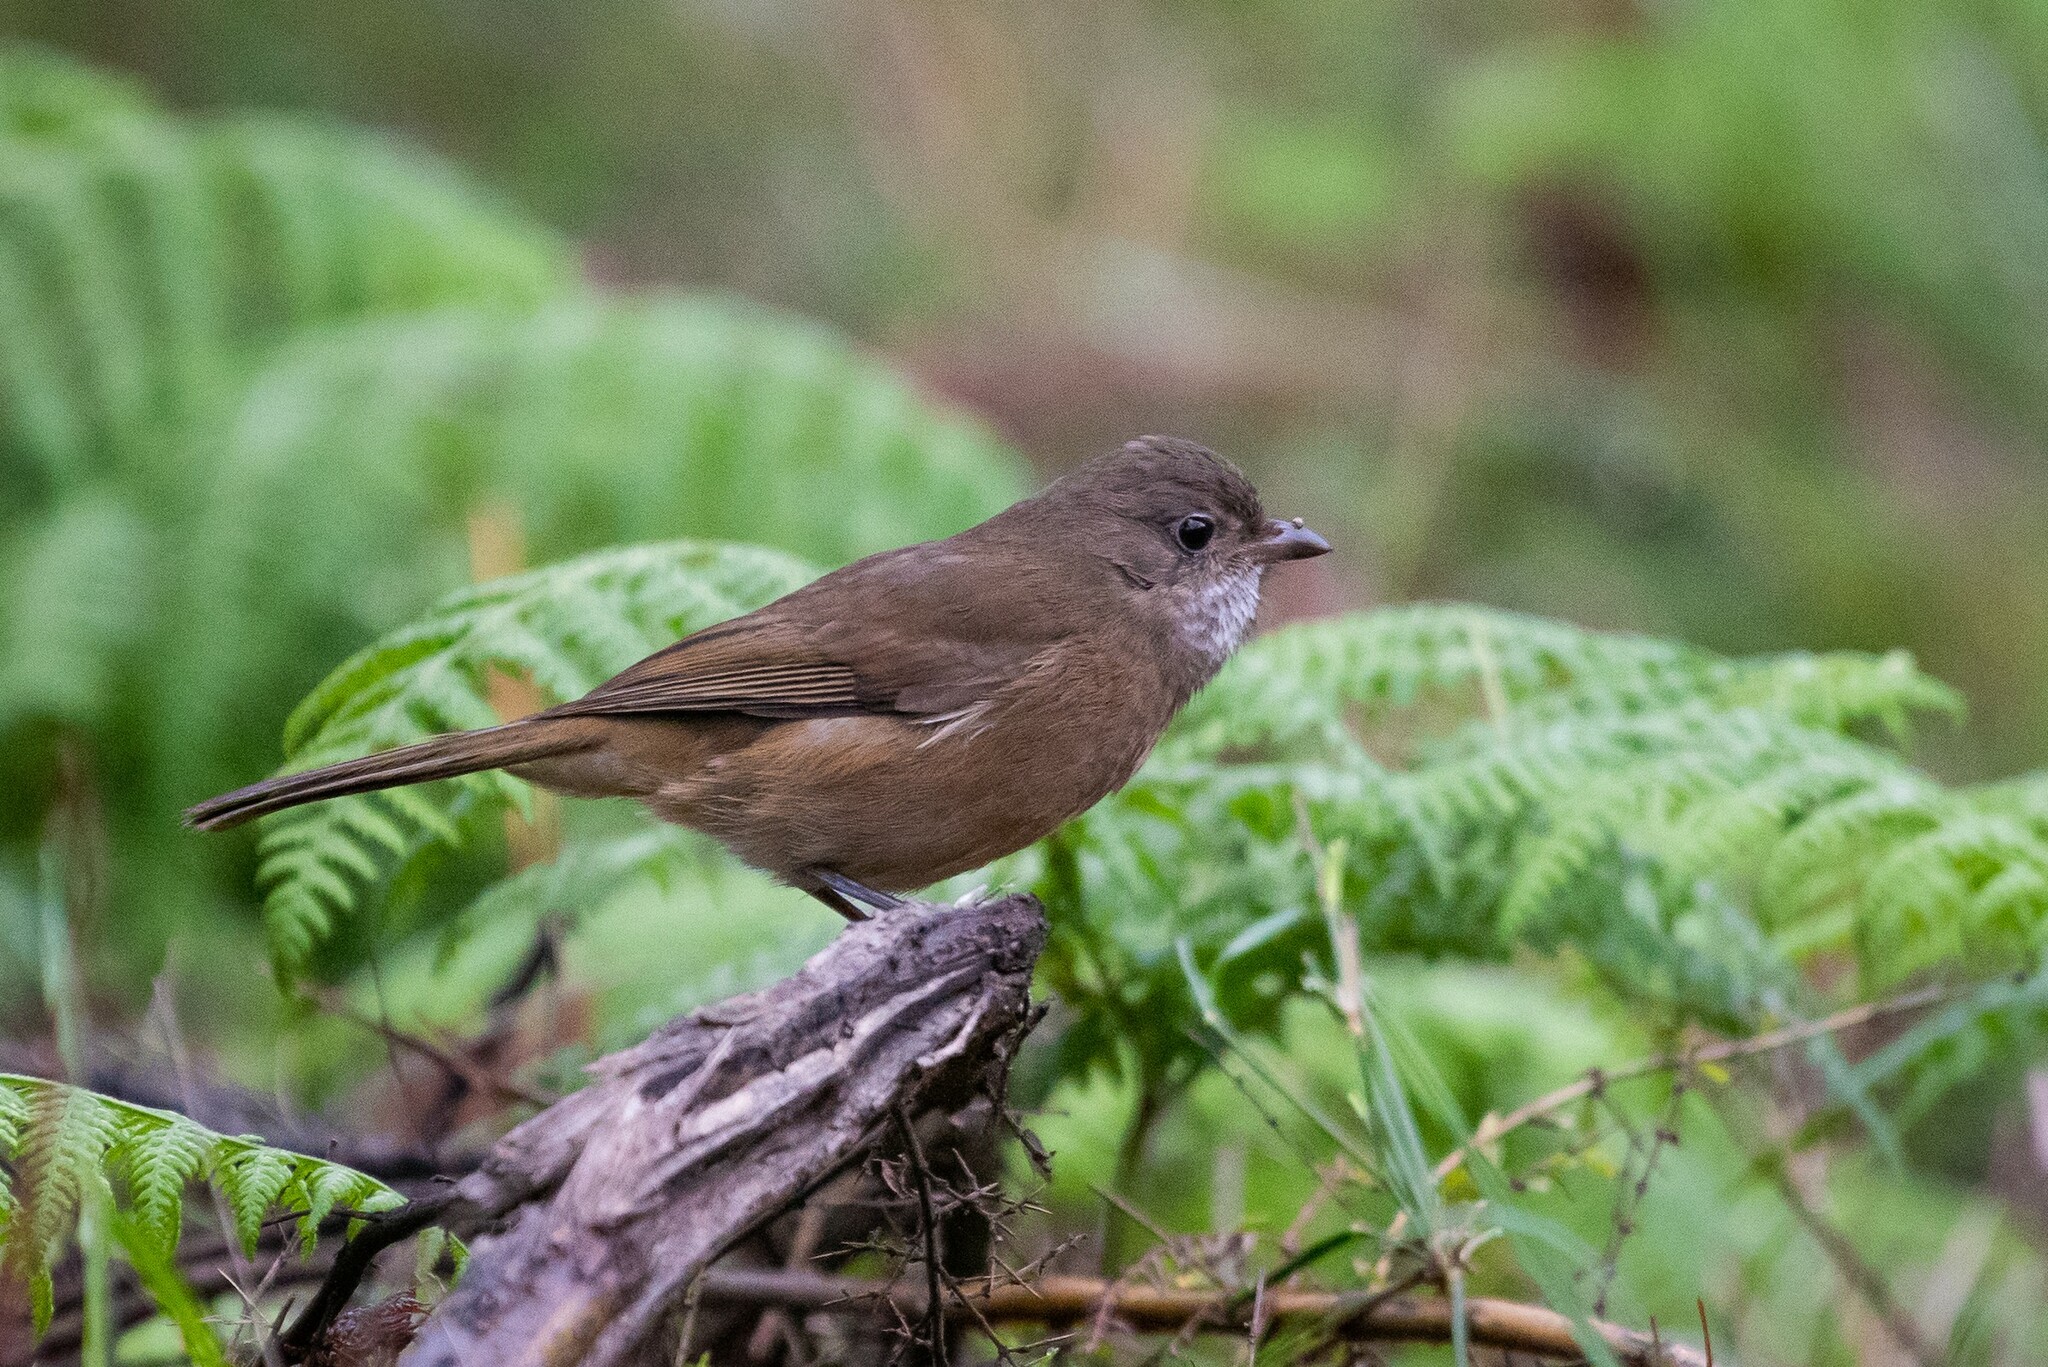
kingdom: Animalia
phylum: Chordata
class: Aves
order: Passeriformes
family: Pachycephalidae
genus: Pachycephala
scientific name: Pachycephala olivacea
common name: Olive whistler
